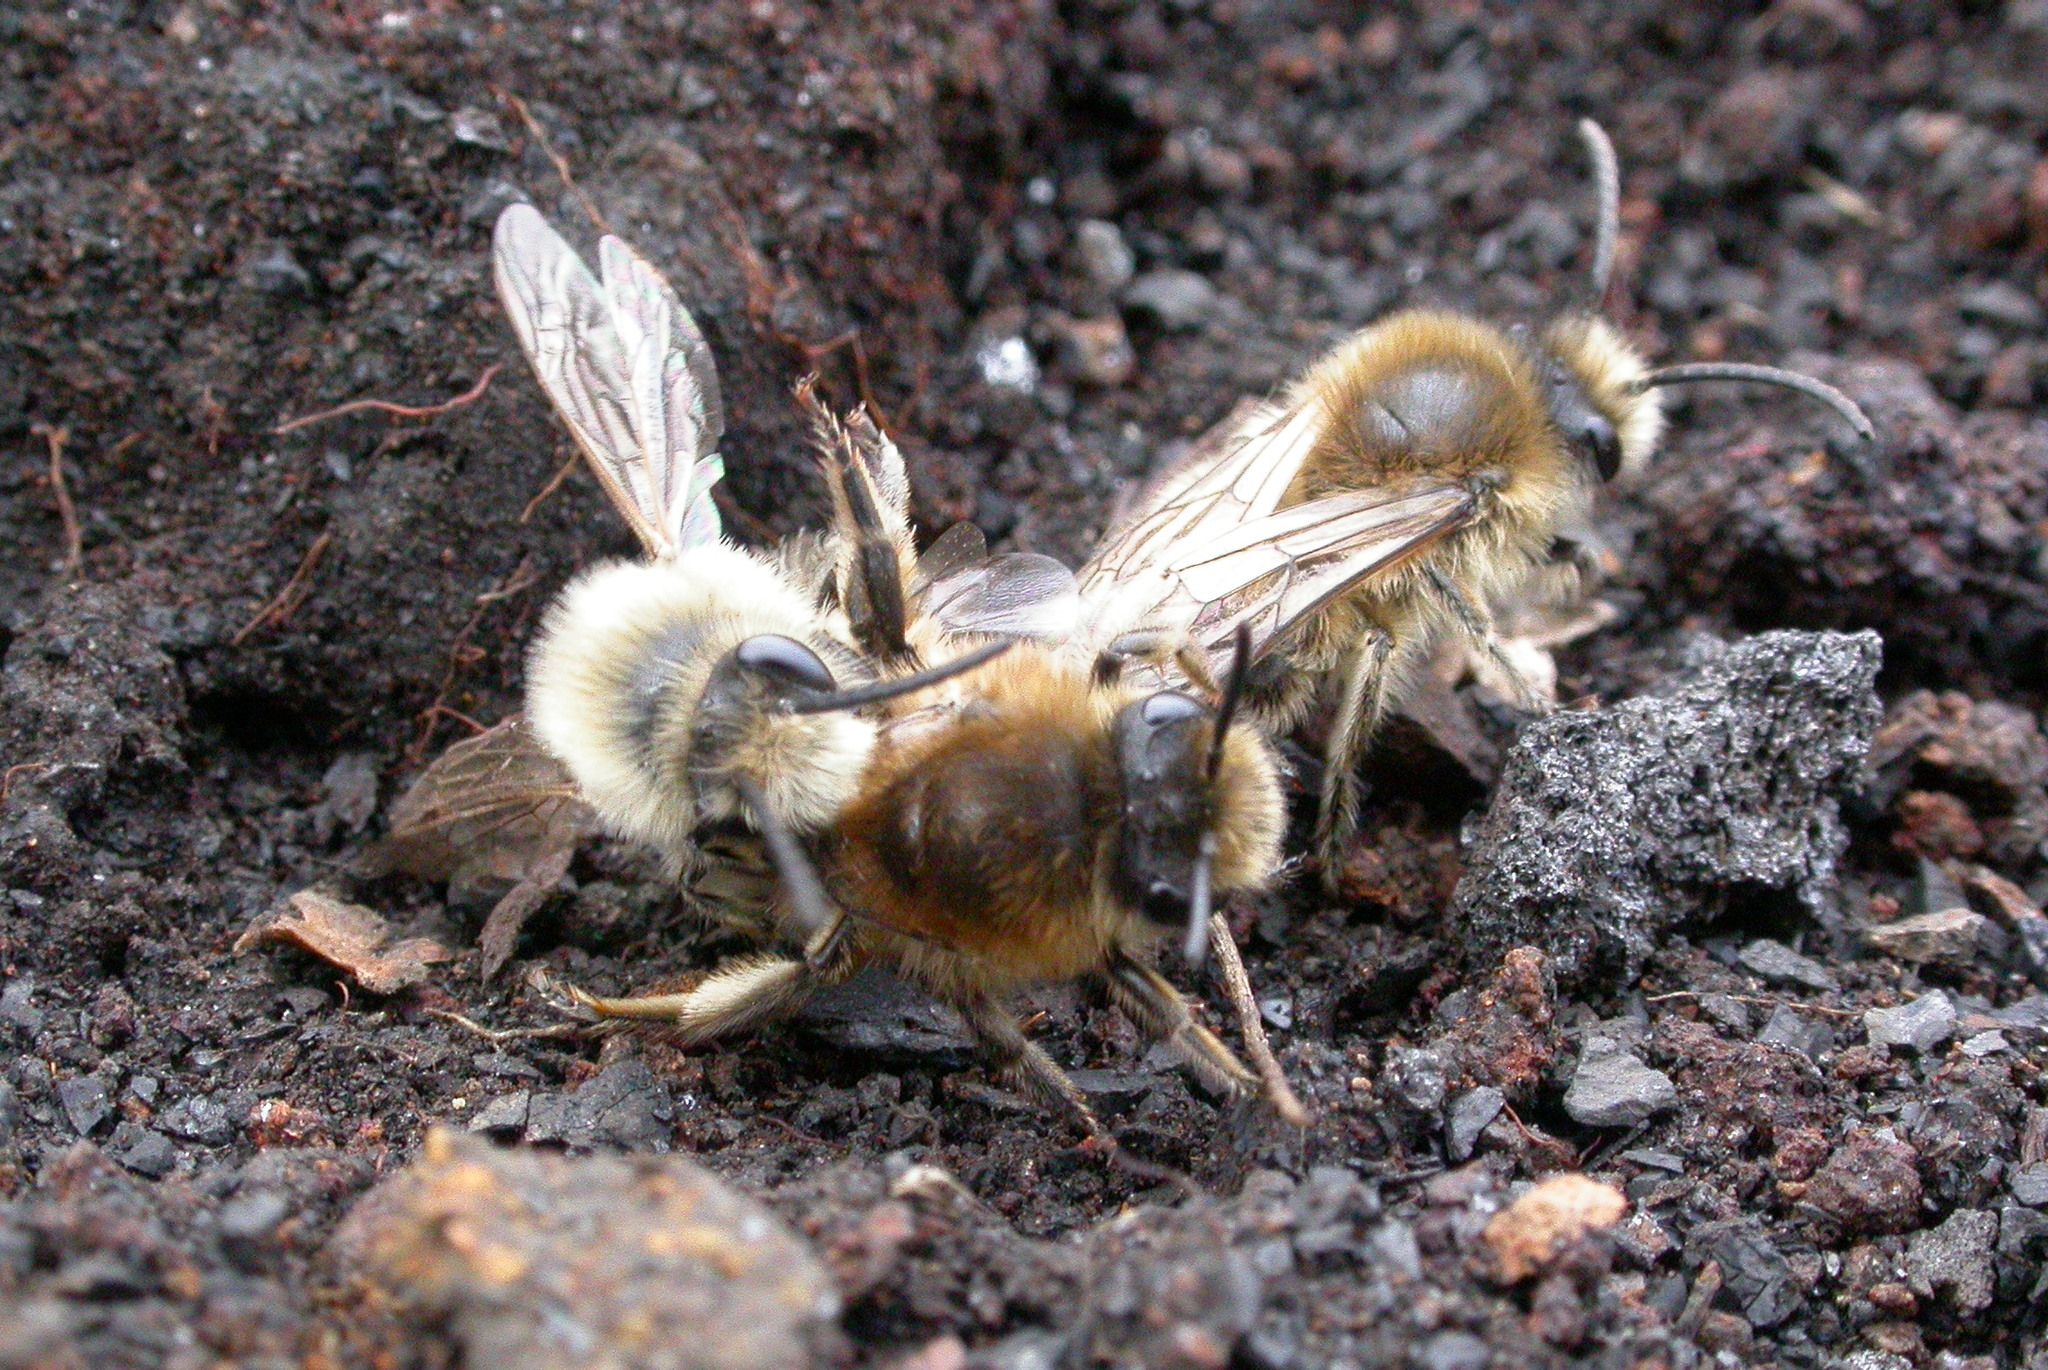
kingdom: Animalia
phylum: Arthropoda
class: Insecta
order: Hymenoptera
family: Colletidae
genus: Colletes
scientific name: Colletes cunicularius
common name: Early colletes
